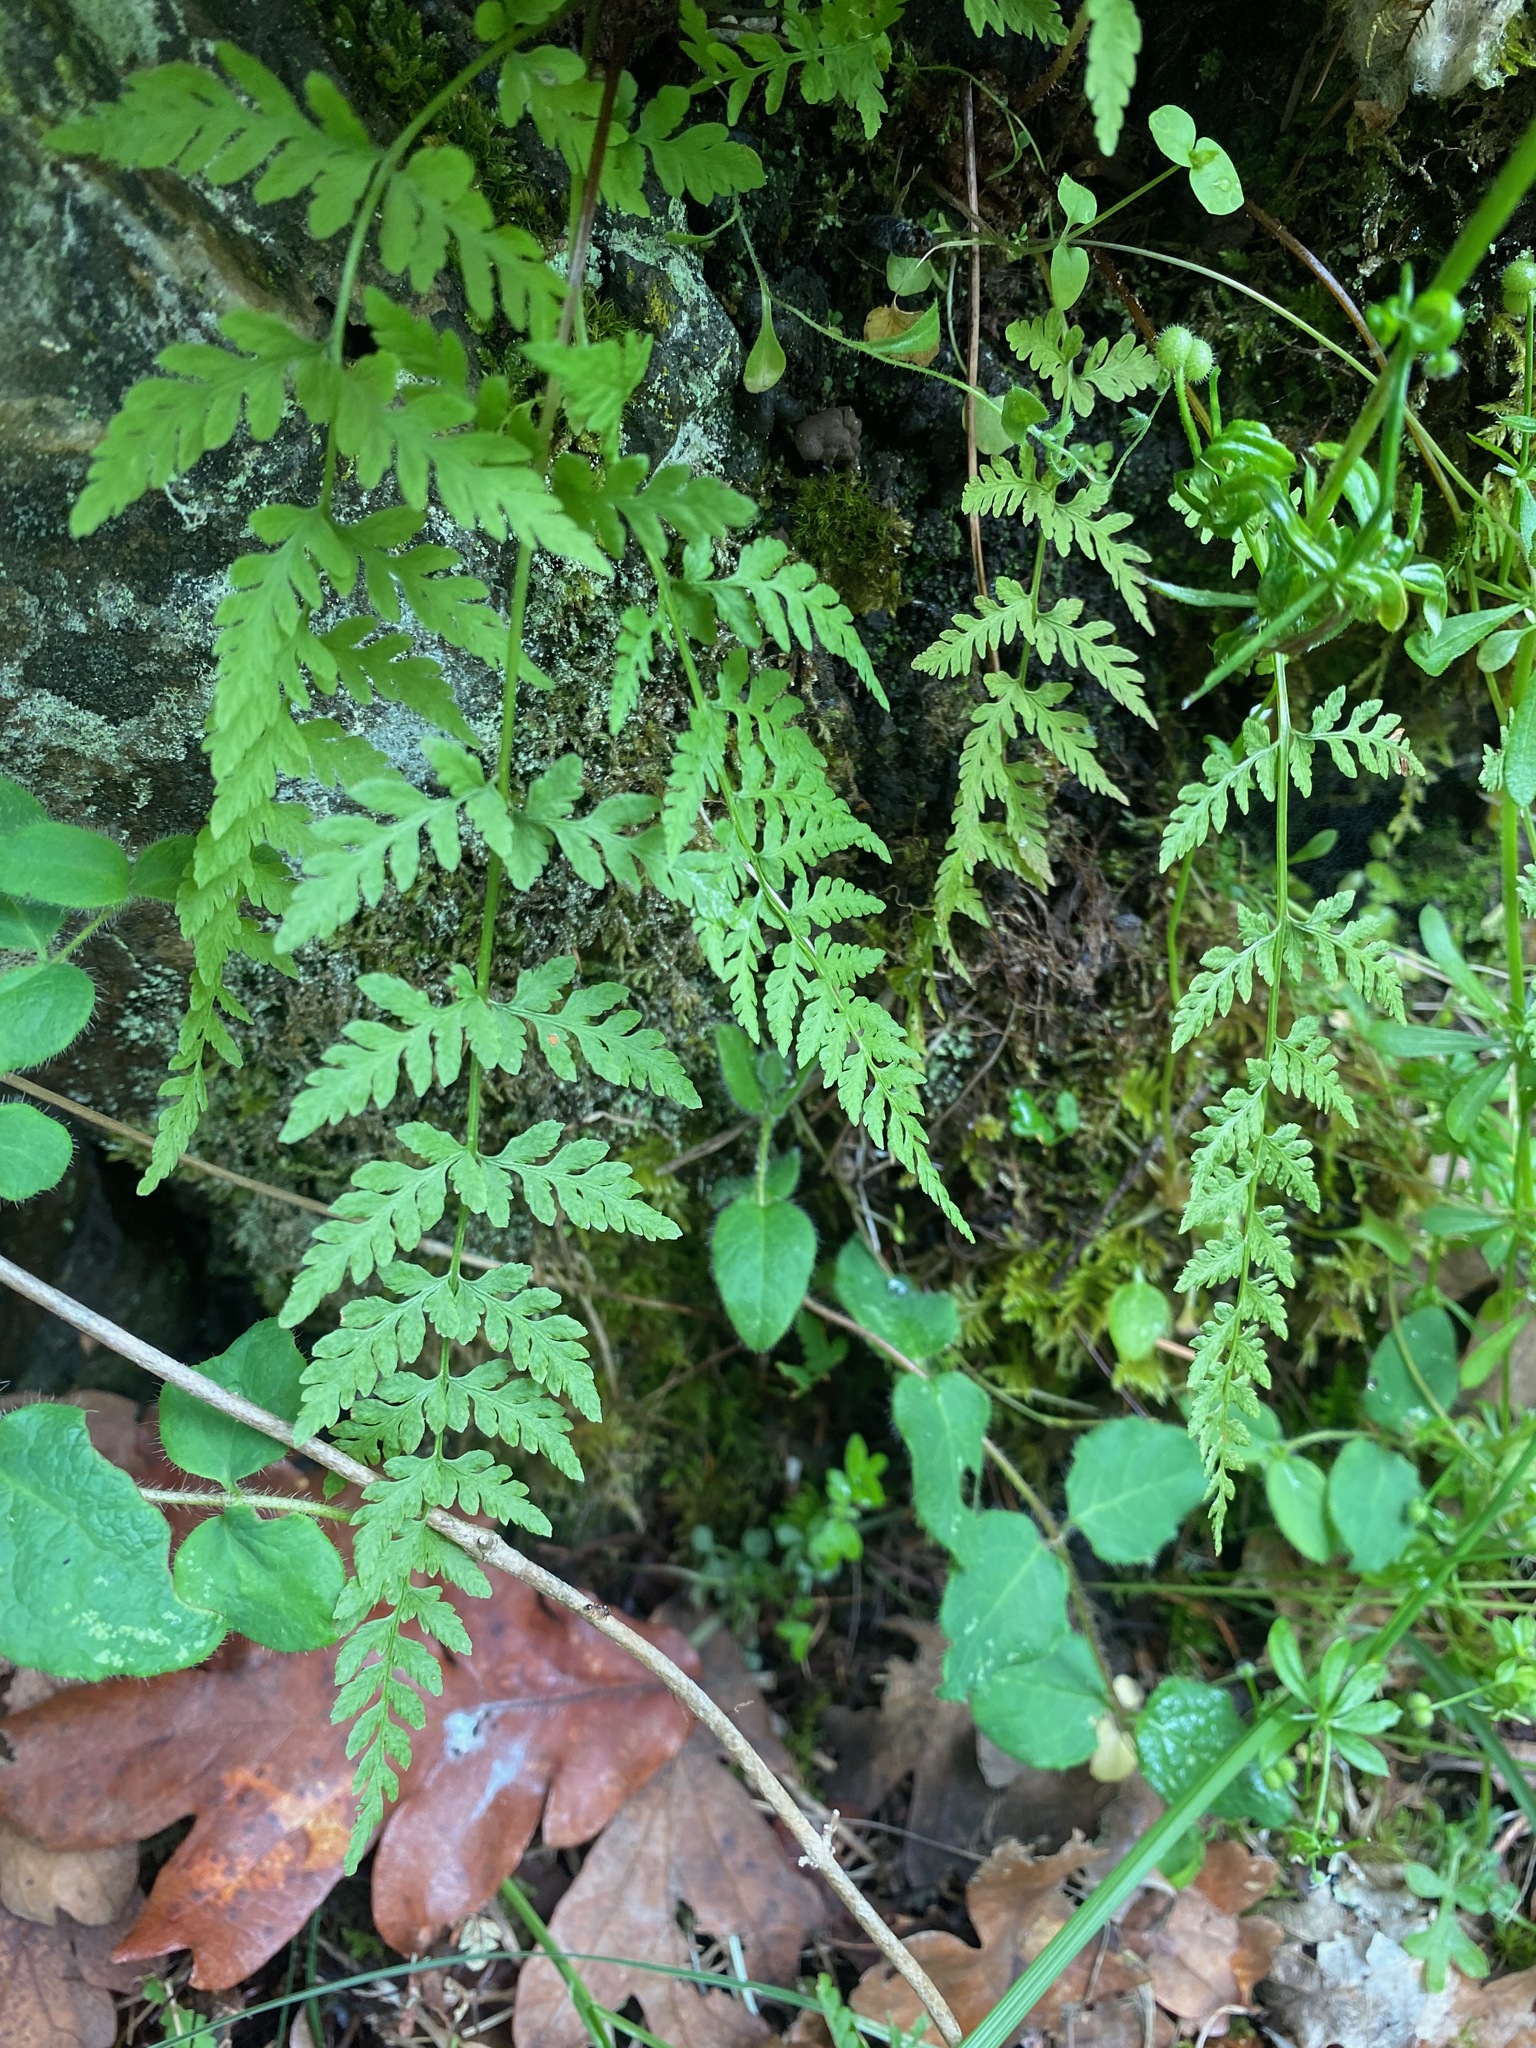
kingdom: Plantae
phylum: Tracheophyta
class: Polypodiopsida
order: Polypodiales
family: Cystopteridaceae
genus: Cystopteris
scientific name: Cystopteris fragilis
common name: Brittle bladder fern
